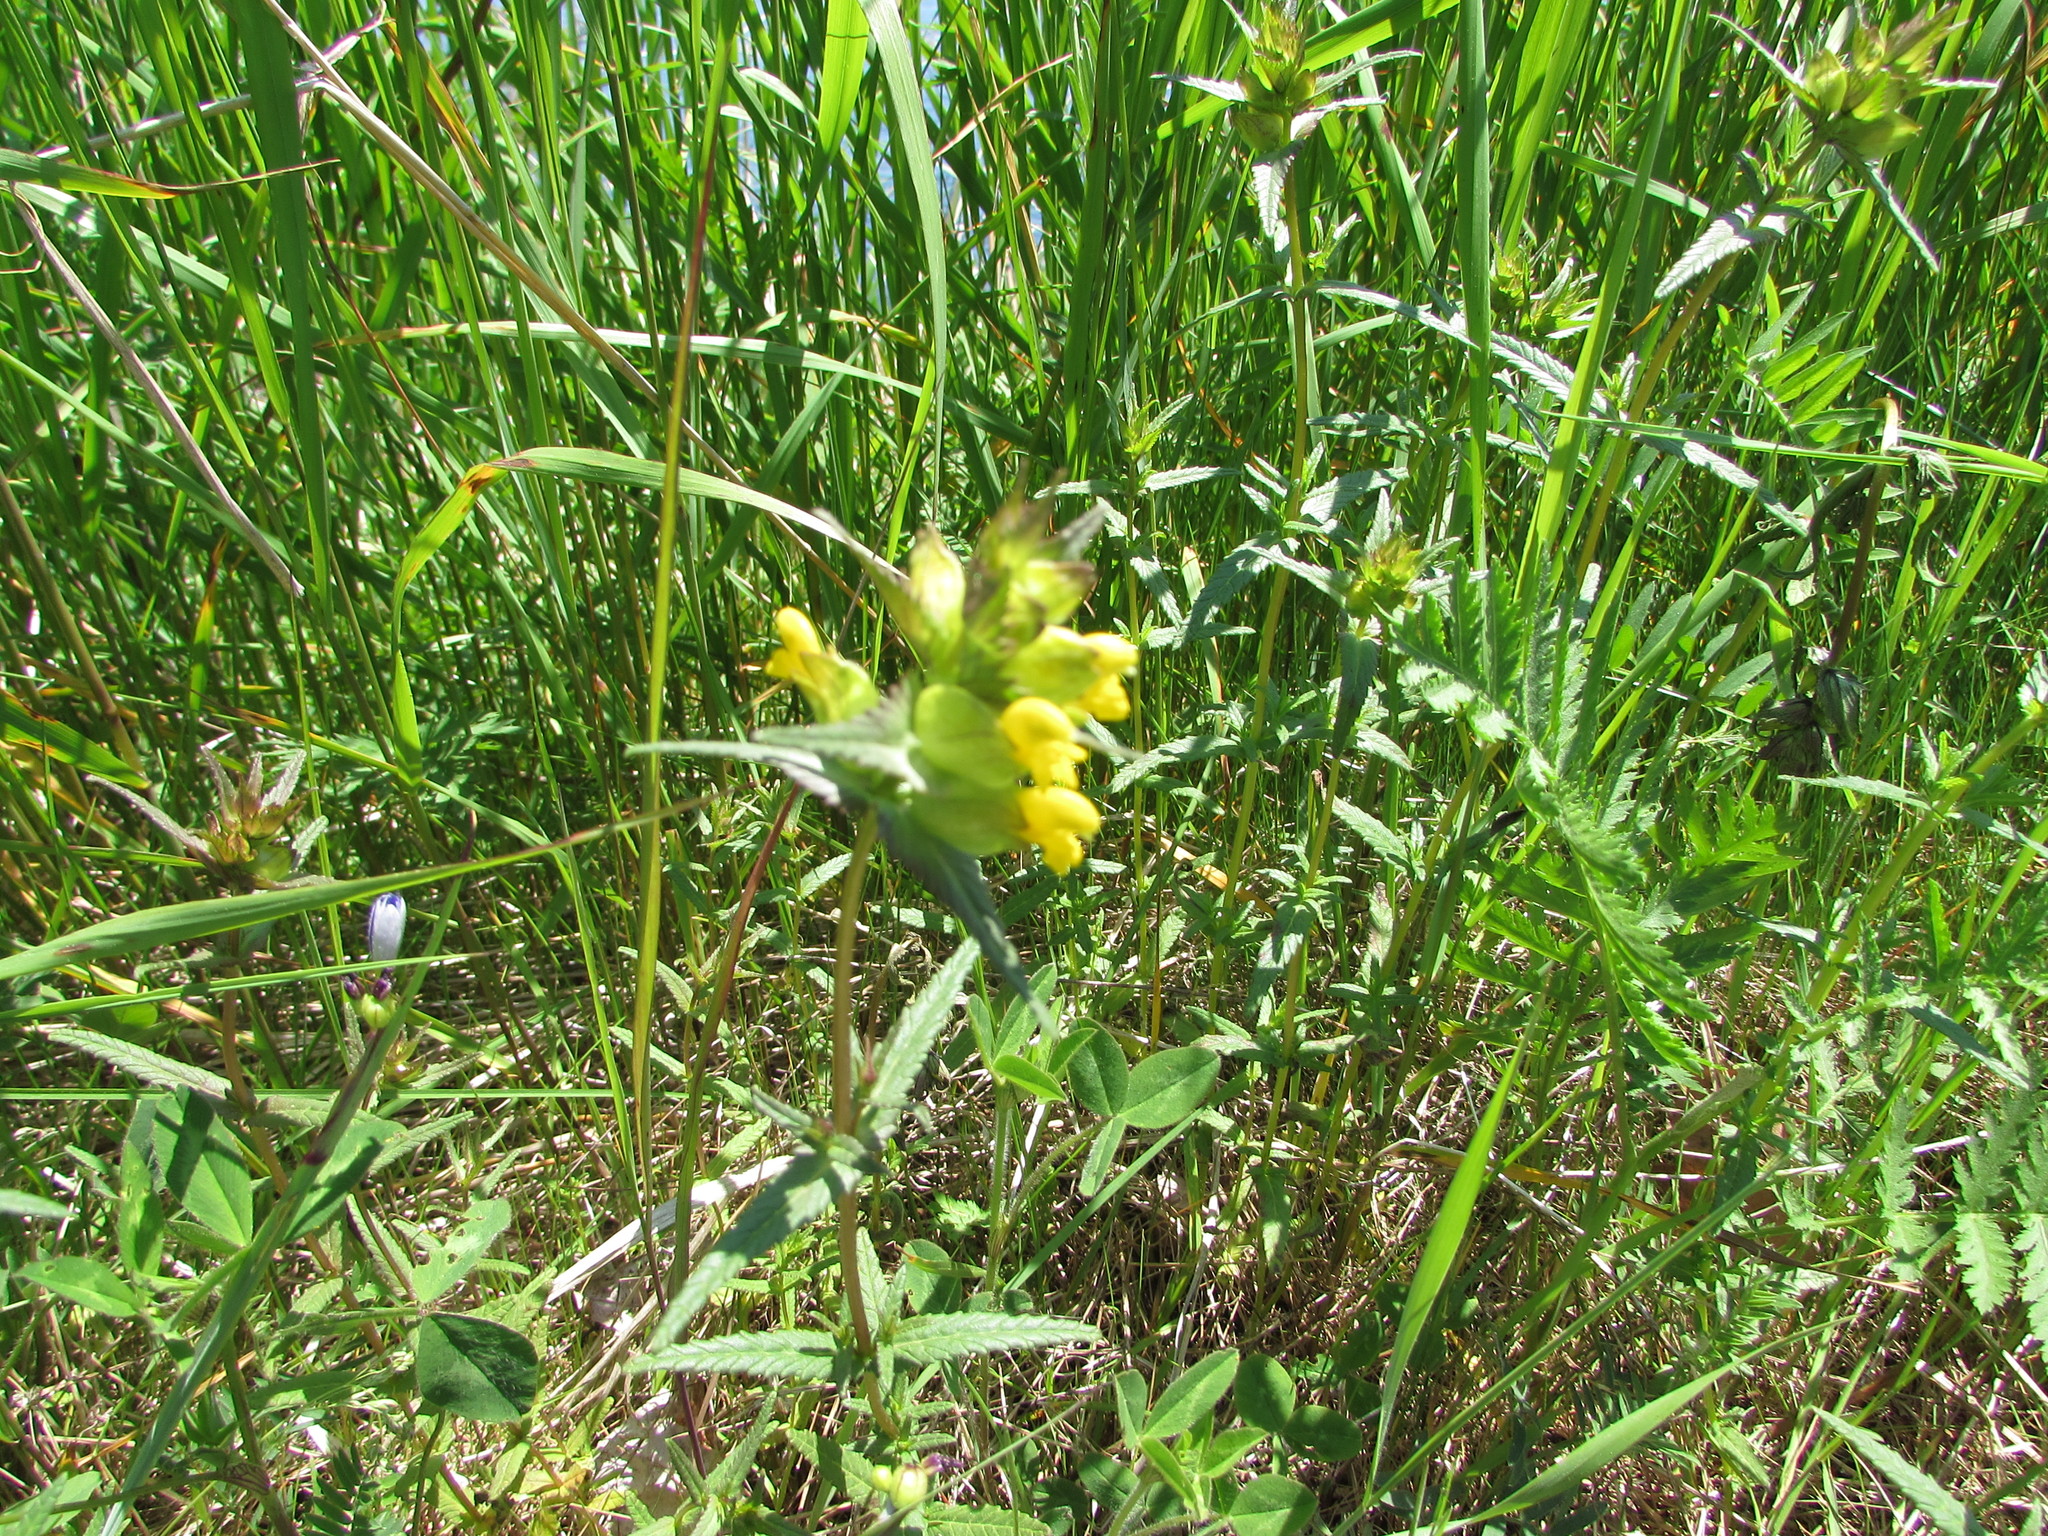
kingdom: Plantae
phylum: Tracheophyta
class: Magnoliopsida
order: Lamiales
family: Orobanchaceae
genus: Rhinanthus
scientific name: Rhinanthus minor
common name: Yellow-rattle
